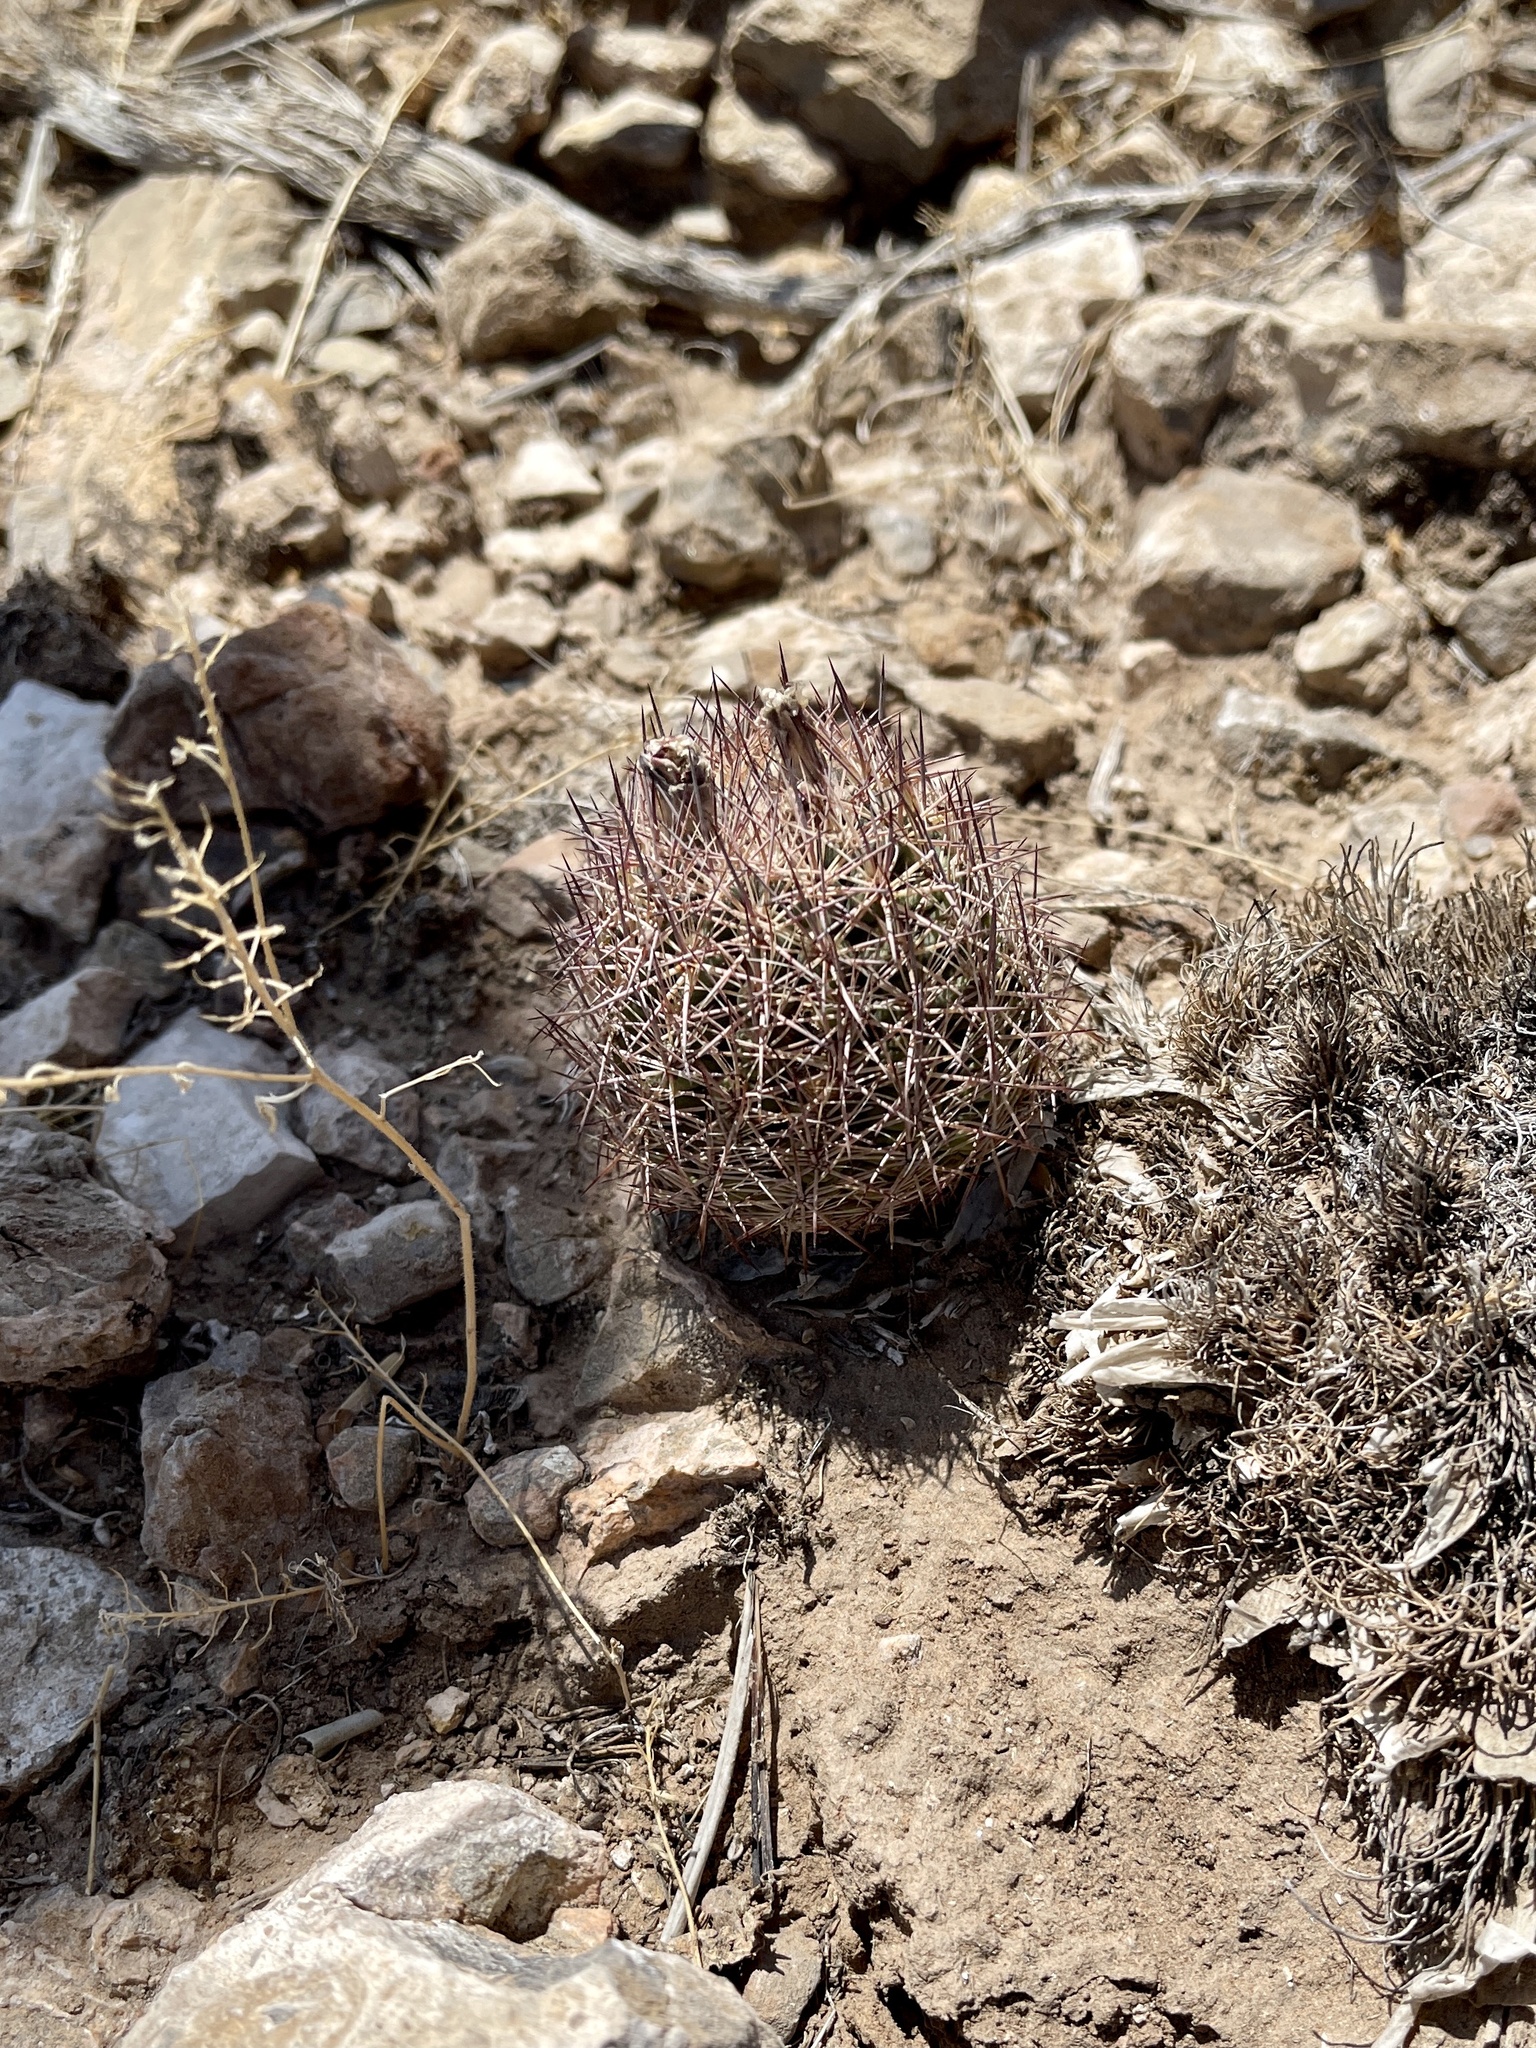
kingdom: Plantae
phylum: Tracheophyta
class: Magnoliopsida
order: Caryophyllales
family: Cactaceae
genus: Sclerocactus
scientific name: Sclerocactus intertextus
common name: White fish-hook cactus
